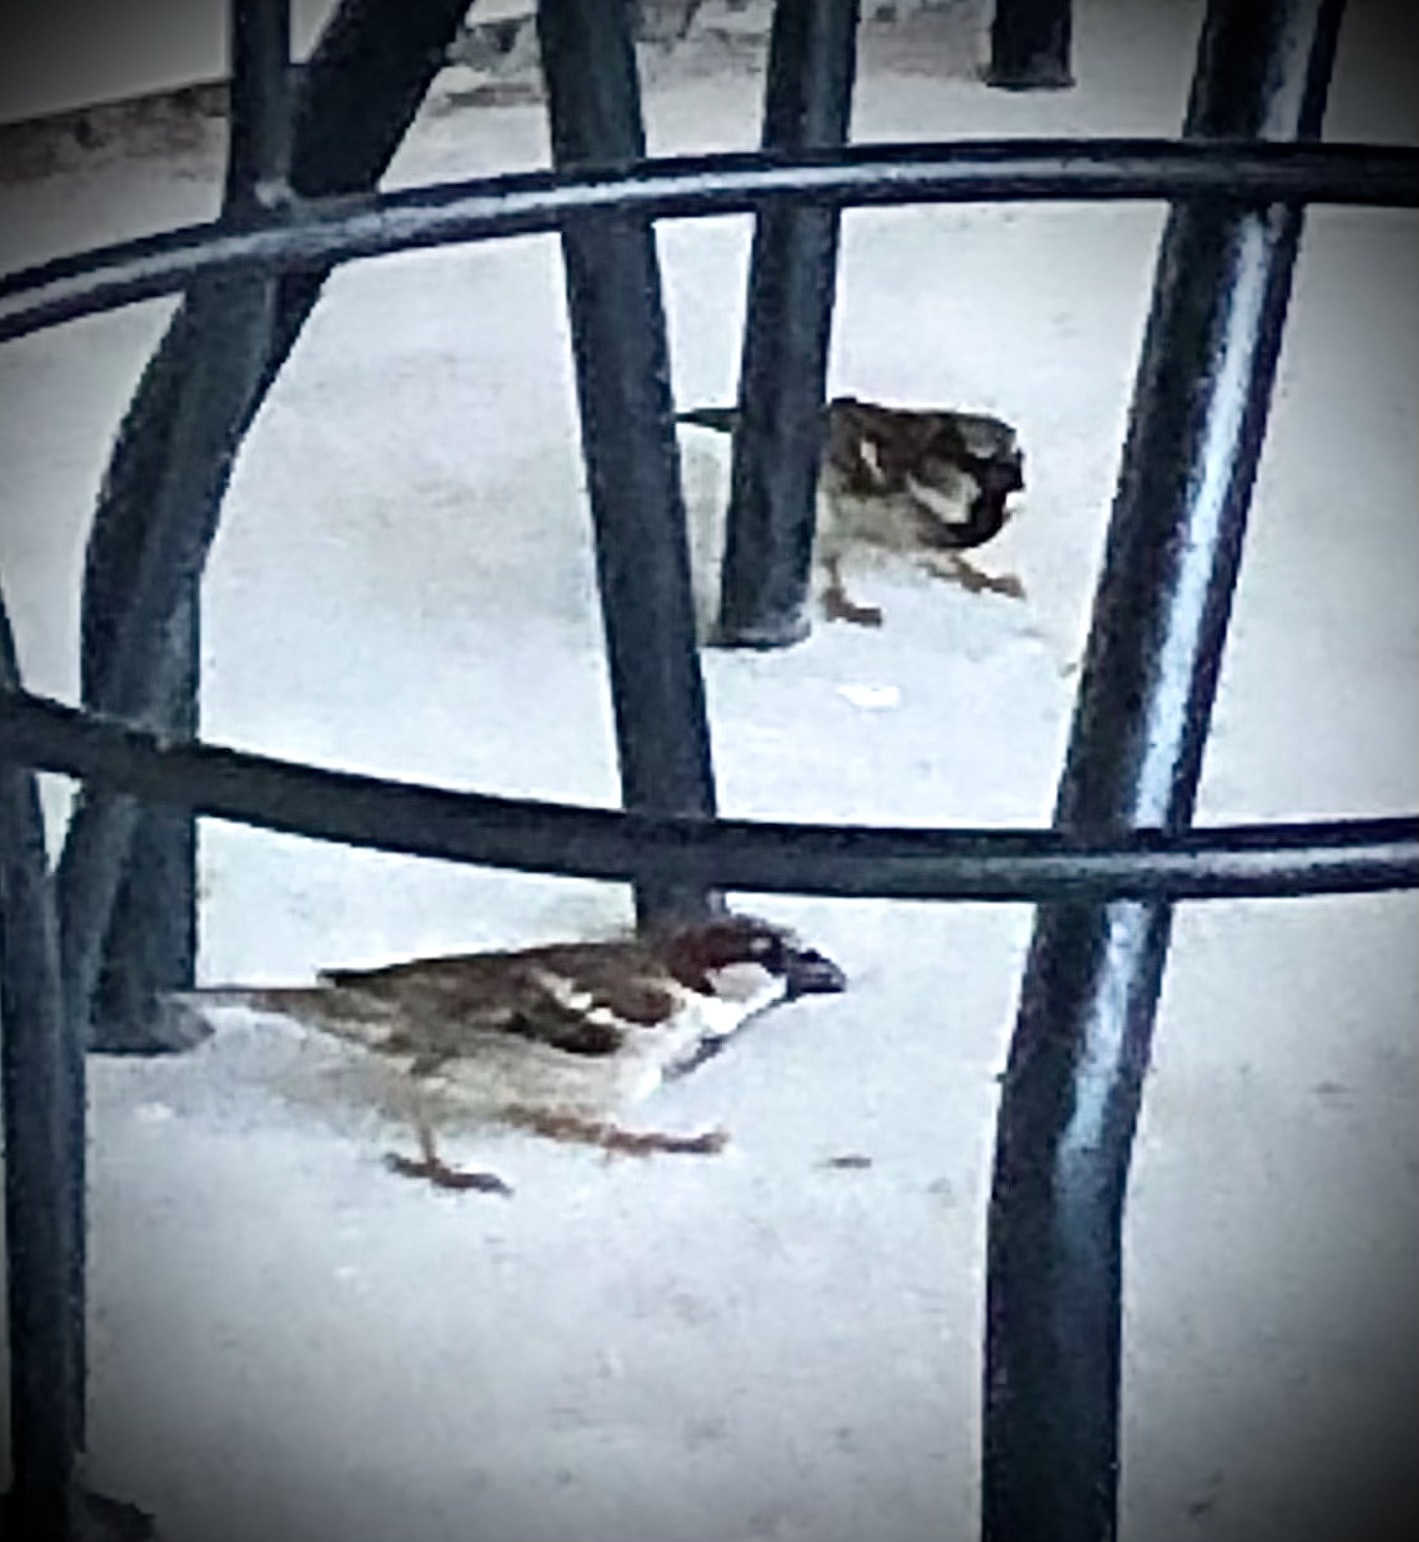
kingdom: Animalia
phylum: Chordata
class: Aves
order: Passeriformes
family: Passeridae
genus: Passer
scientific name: Passer domesticus
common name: House sparrow
